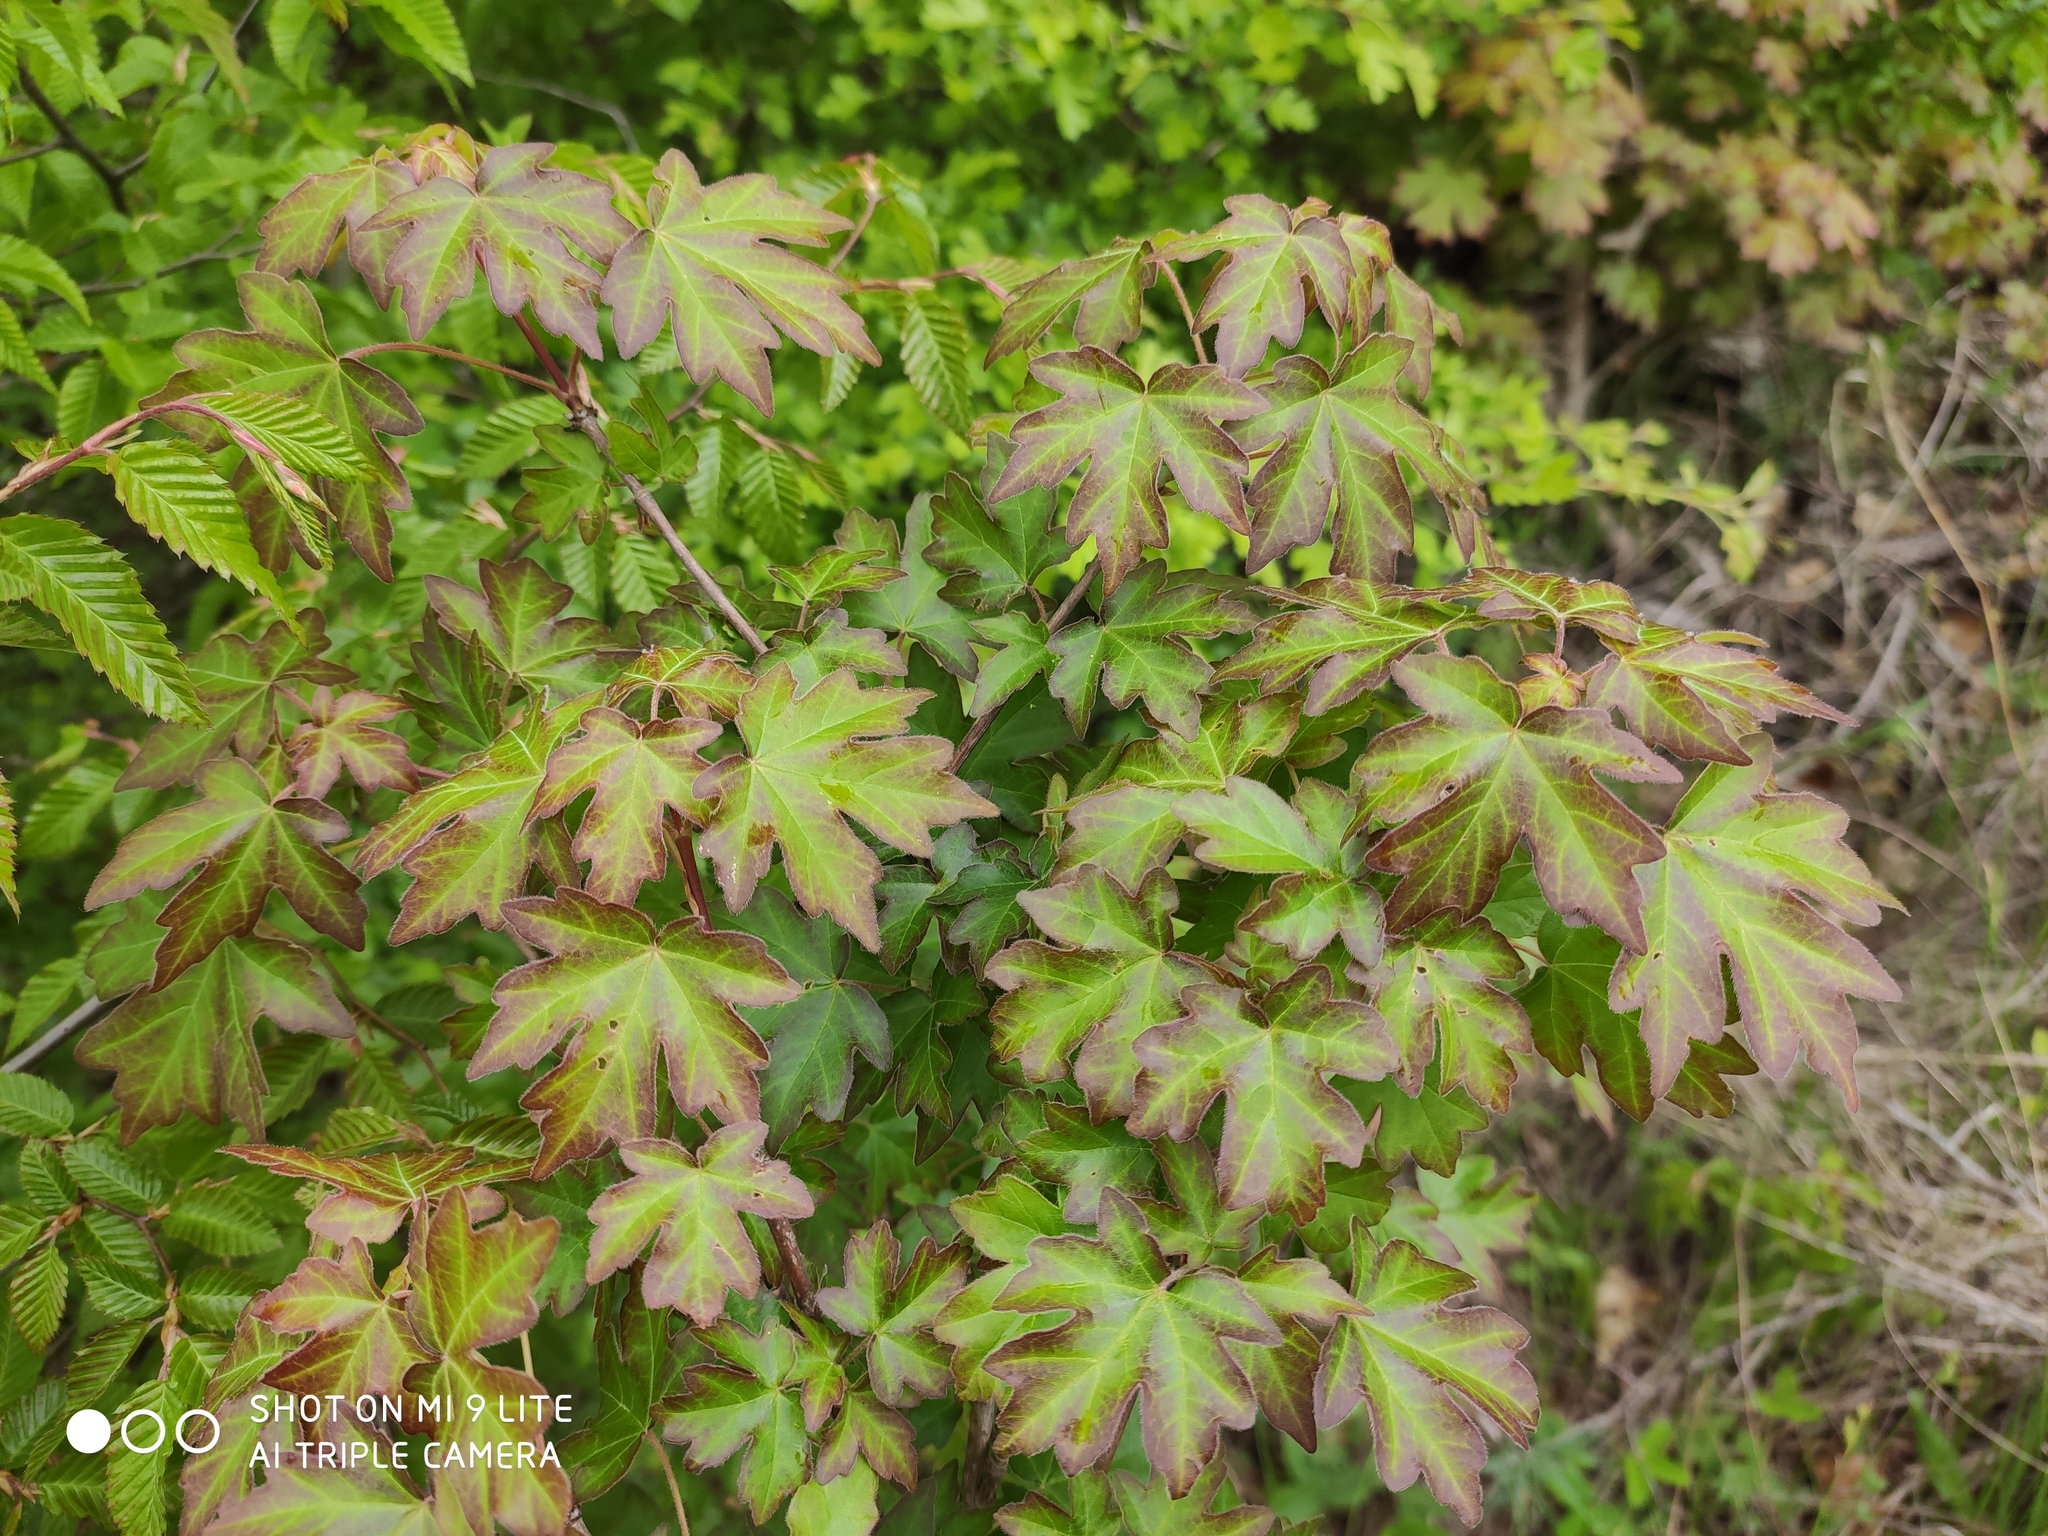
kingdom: Plantae
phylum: Tracheophyta
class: Magnoliopsida
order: Sapindales
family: Sapindaceae
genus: Acer
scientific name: Acer campestre
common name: Field maple
